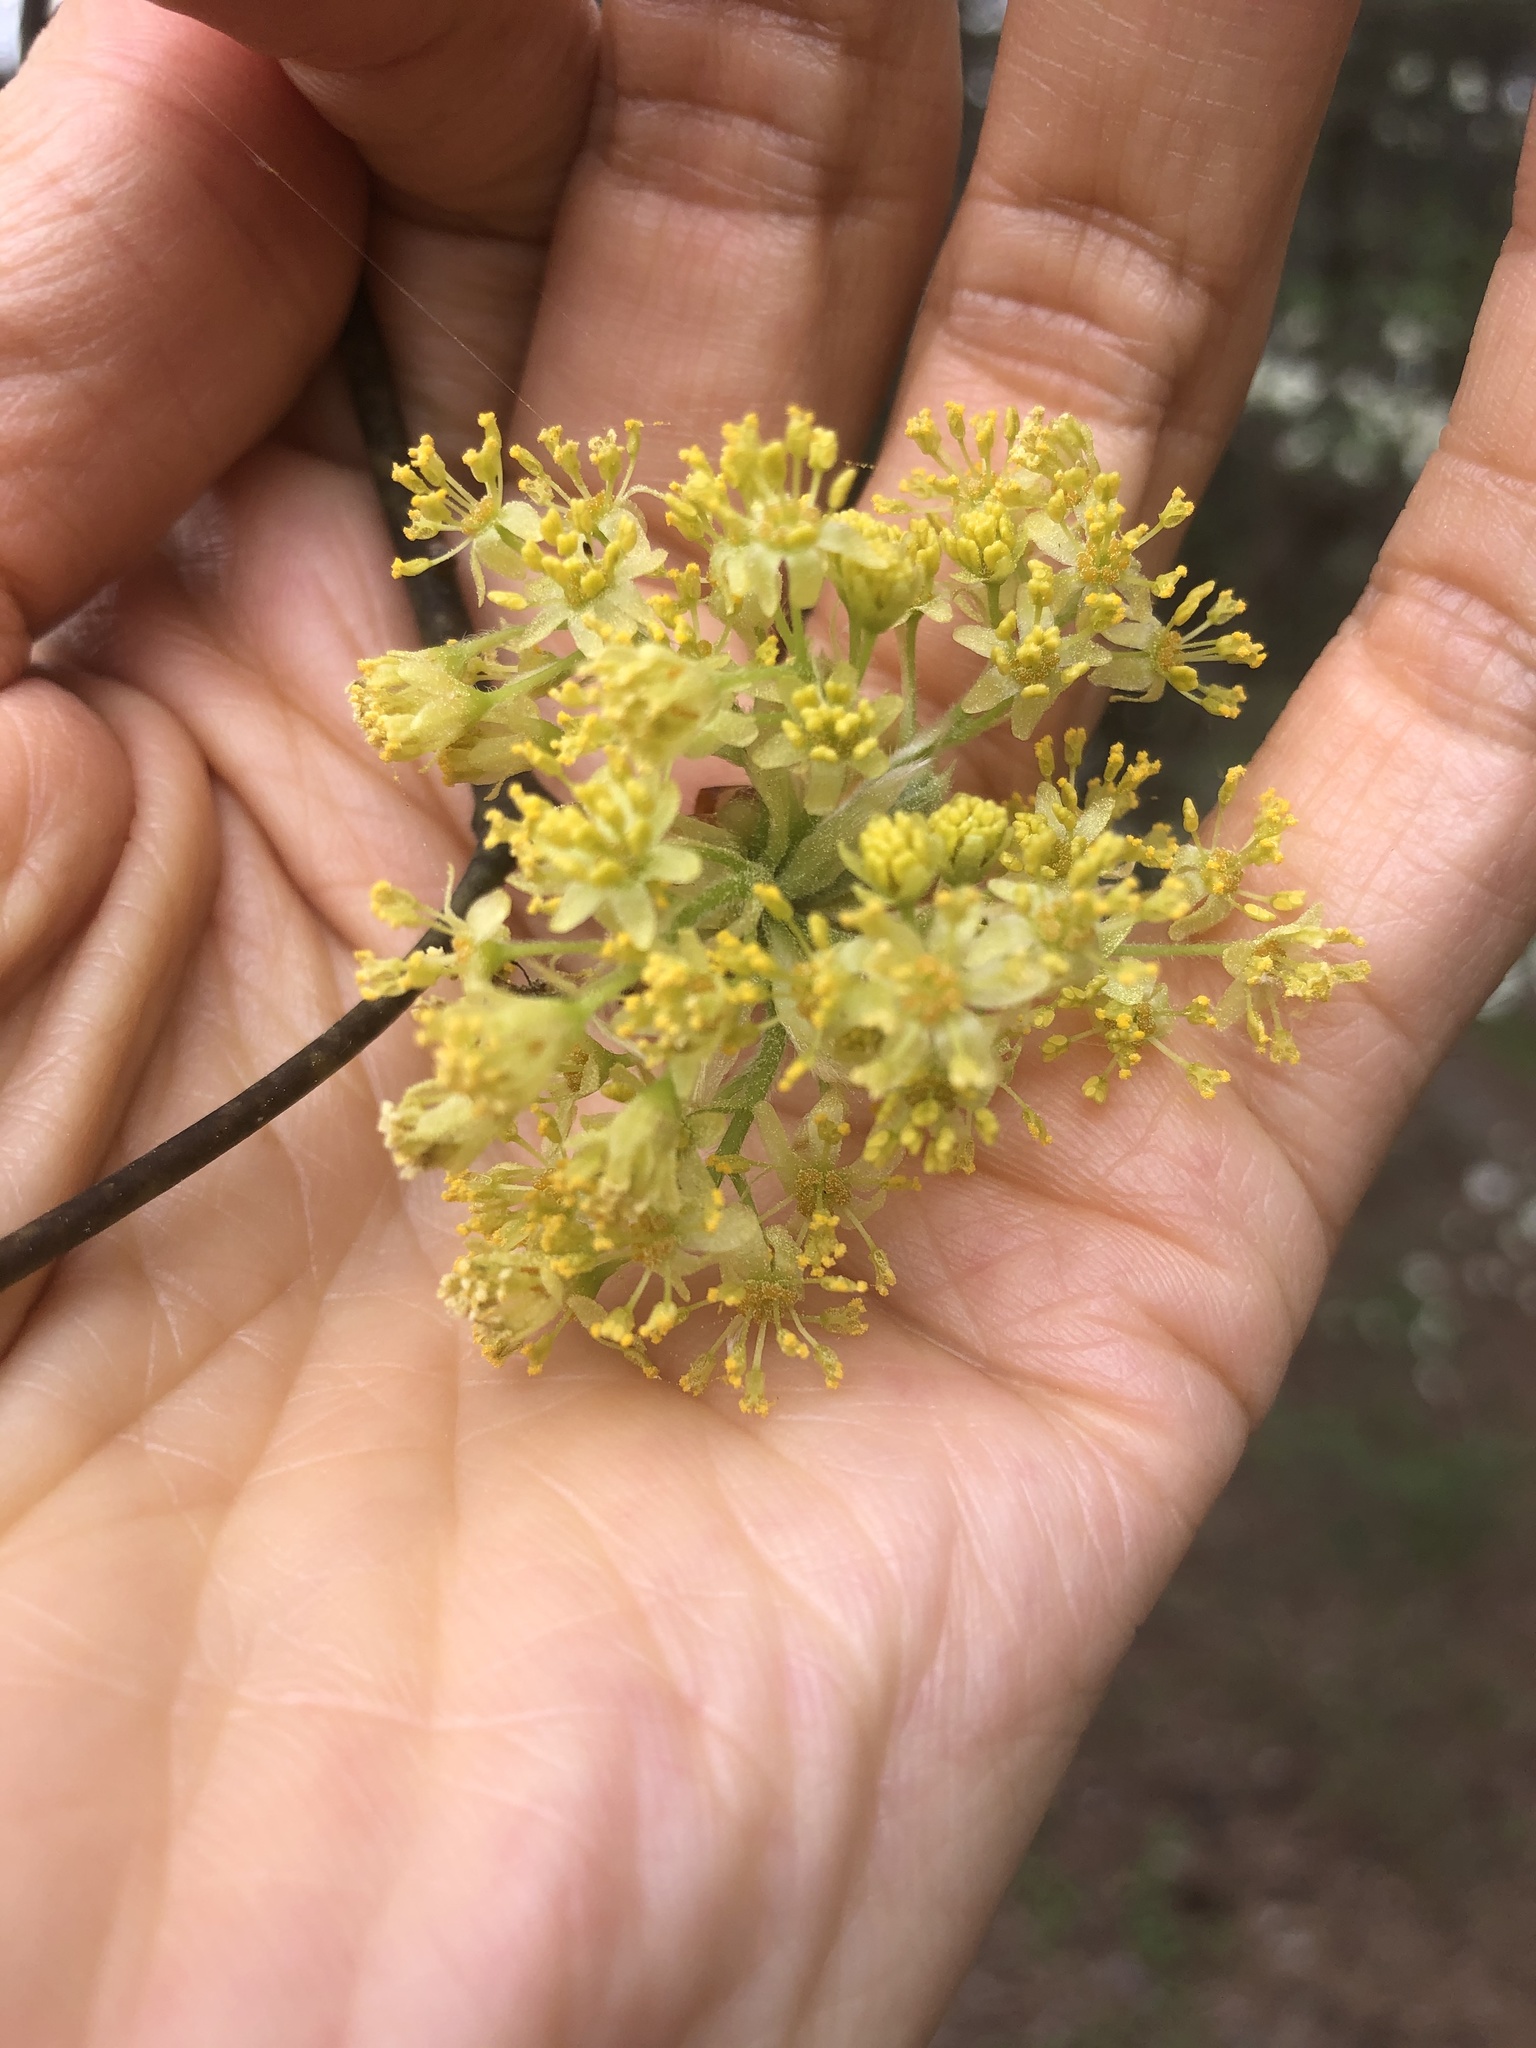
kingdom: Plantae
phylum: Tracheophyta
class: Magnoliopsida
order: Laurales
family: Lauraceae
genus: Sassafras
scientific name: Sassafras albidum
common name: Sassafras
